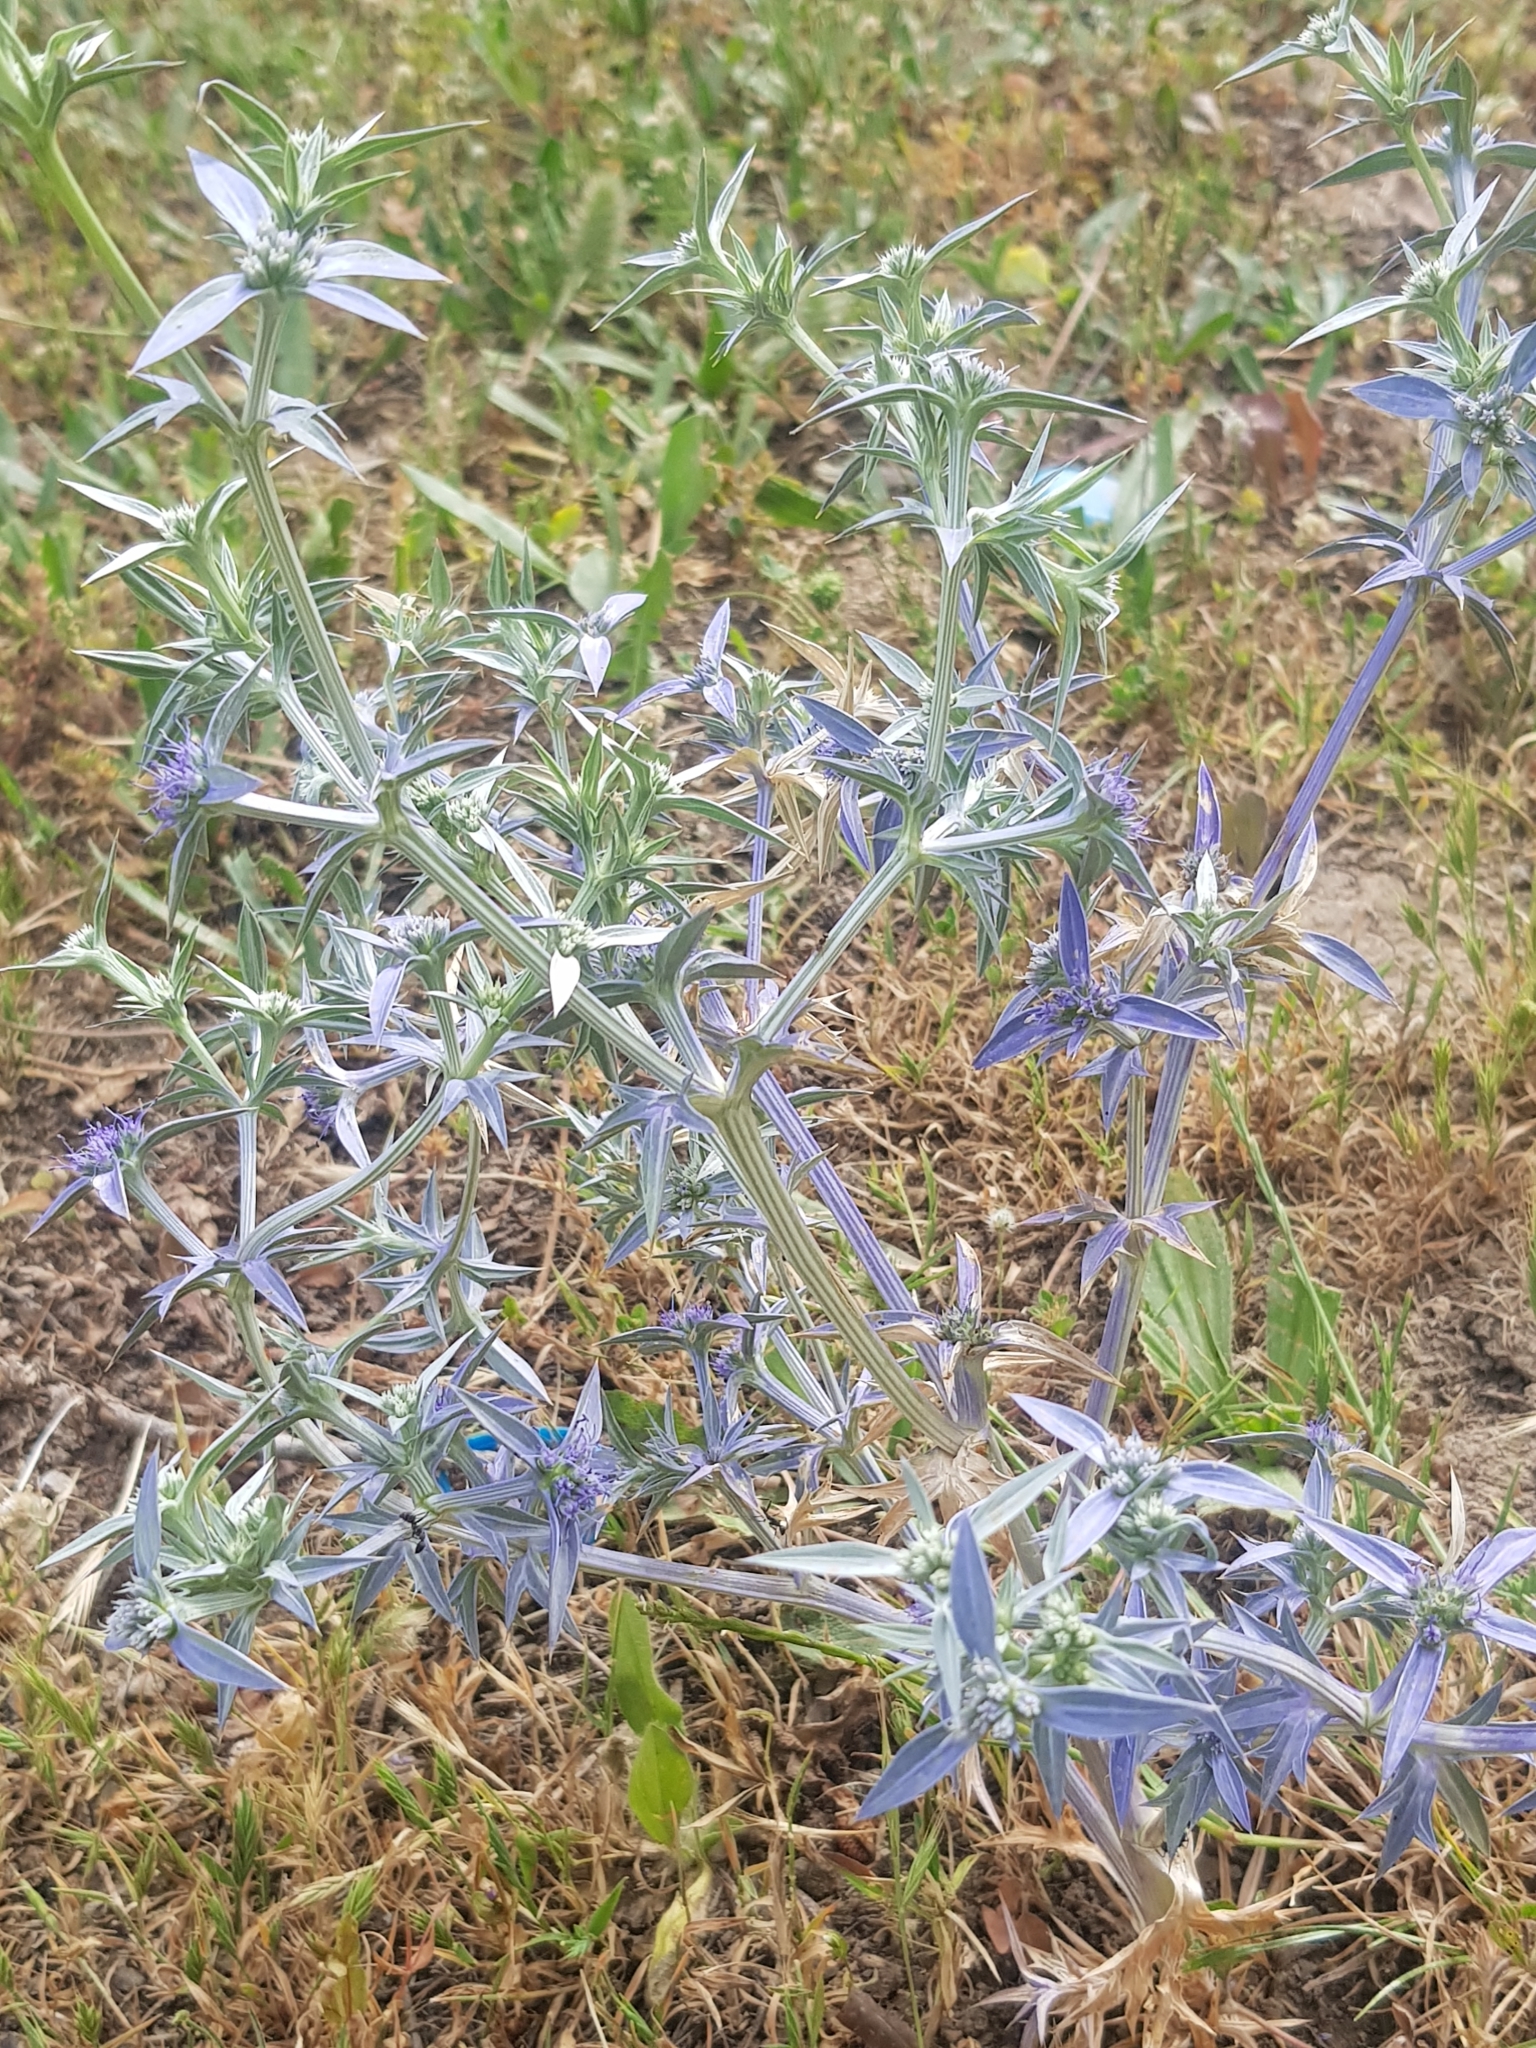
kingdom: Plantae
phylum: Tracheophyta
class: Magnoliopsida
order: Apiales
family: Apiaceae
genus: Eryngium
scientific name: Eryngium triquetrum
